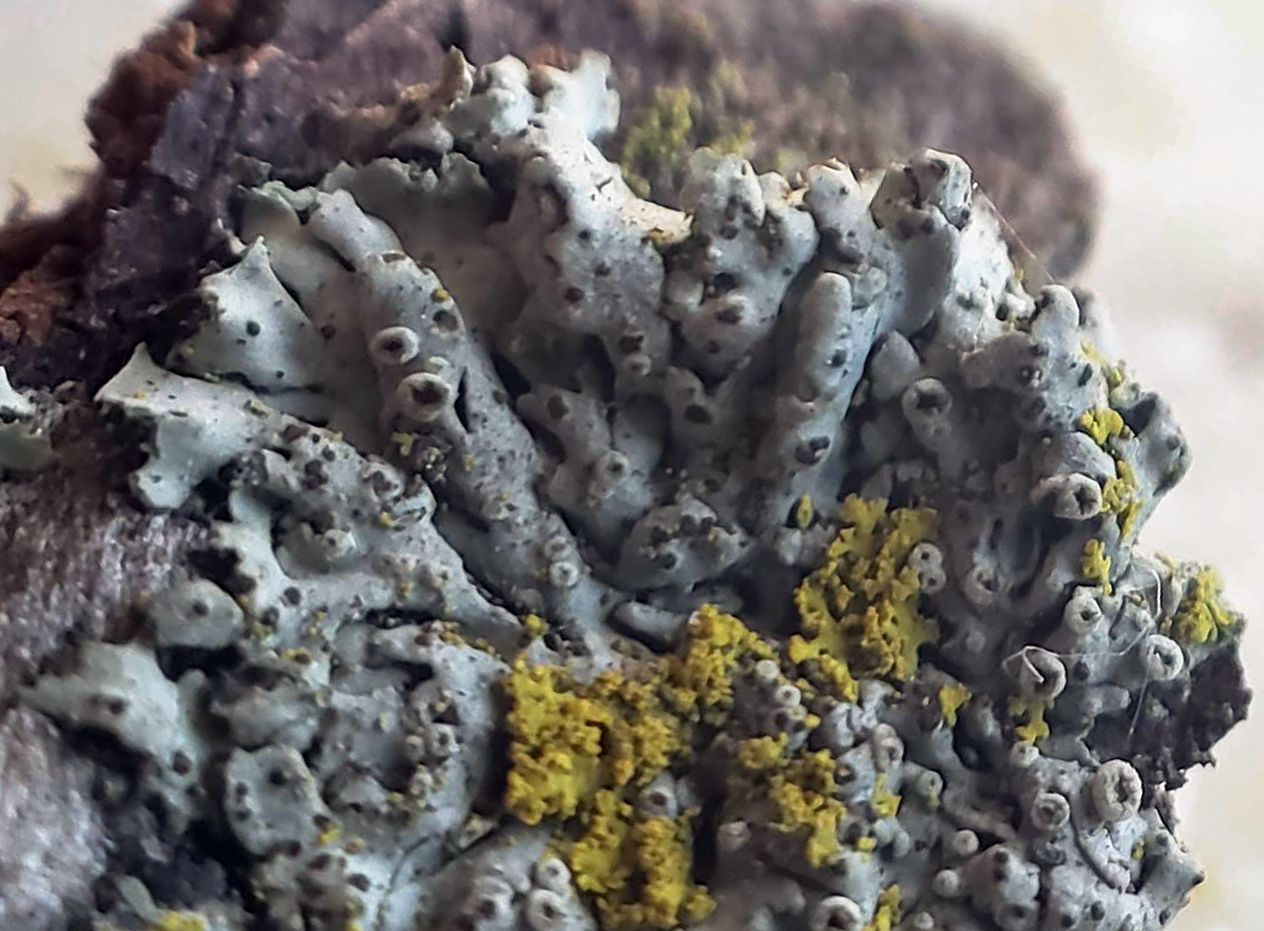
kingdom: Fungi
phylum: Ascomycota
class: Lecanoromycetes
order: Caliciales
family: Physciaceae
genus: Phaeophyscia
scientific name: Phaeophyscia ciliata
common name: Smooth shadow lichen
